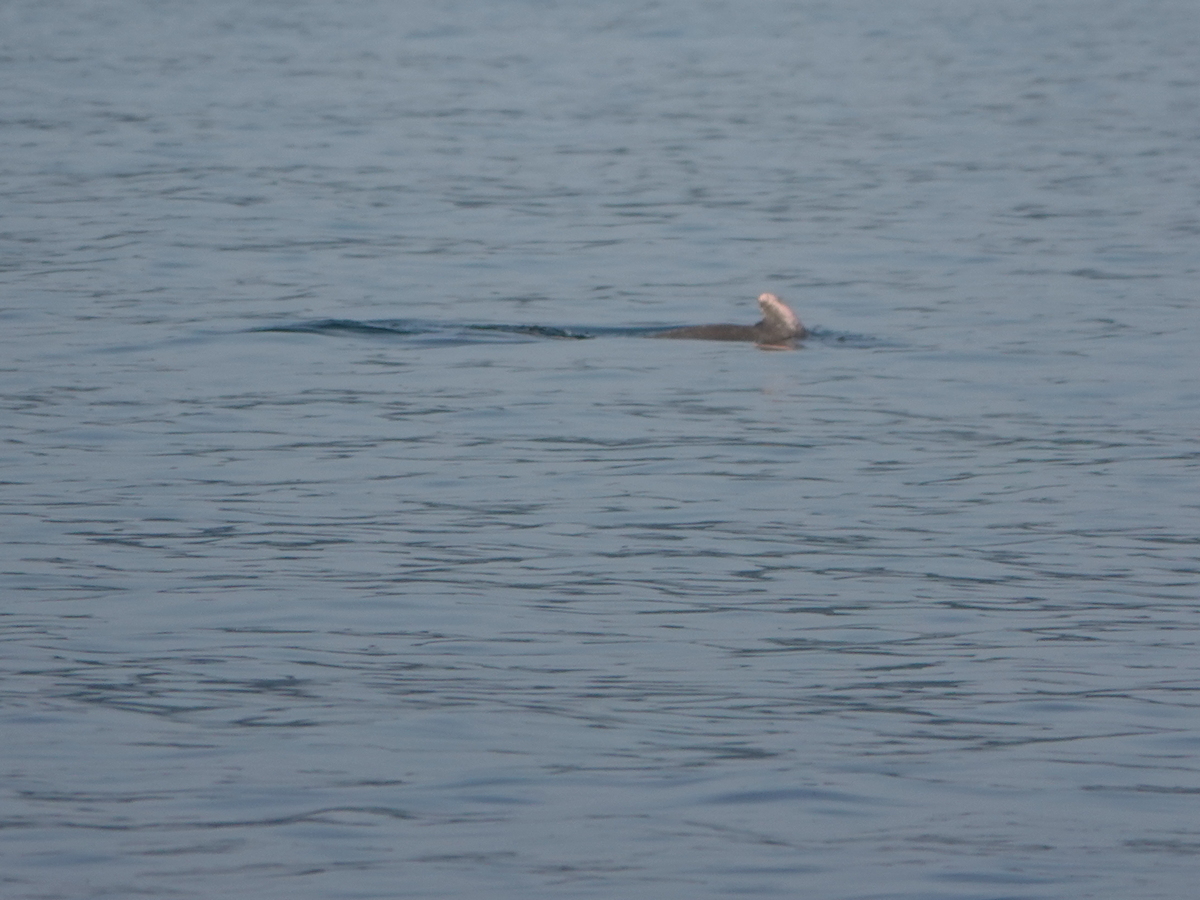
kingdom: Animalia
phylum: Chordata
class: Mammalia
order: Cetacea
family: Delphinidae
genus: Sousa
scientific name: Sousa plumbea
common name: Indian ocean humpback dolphin
